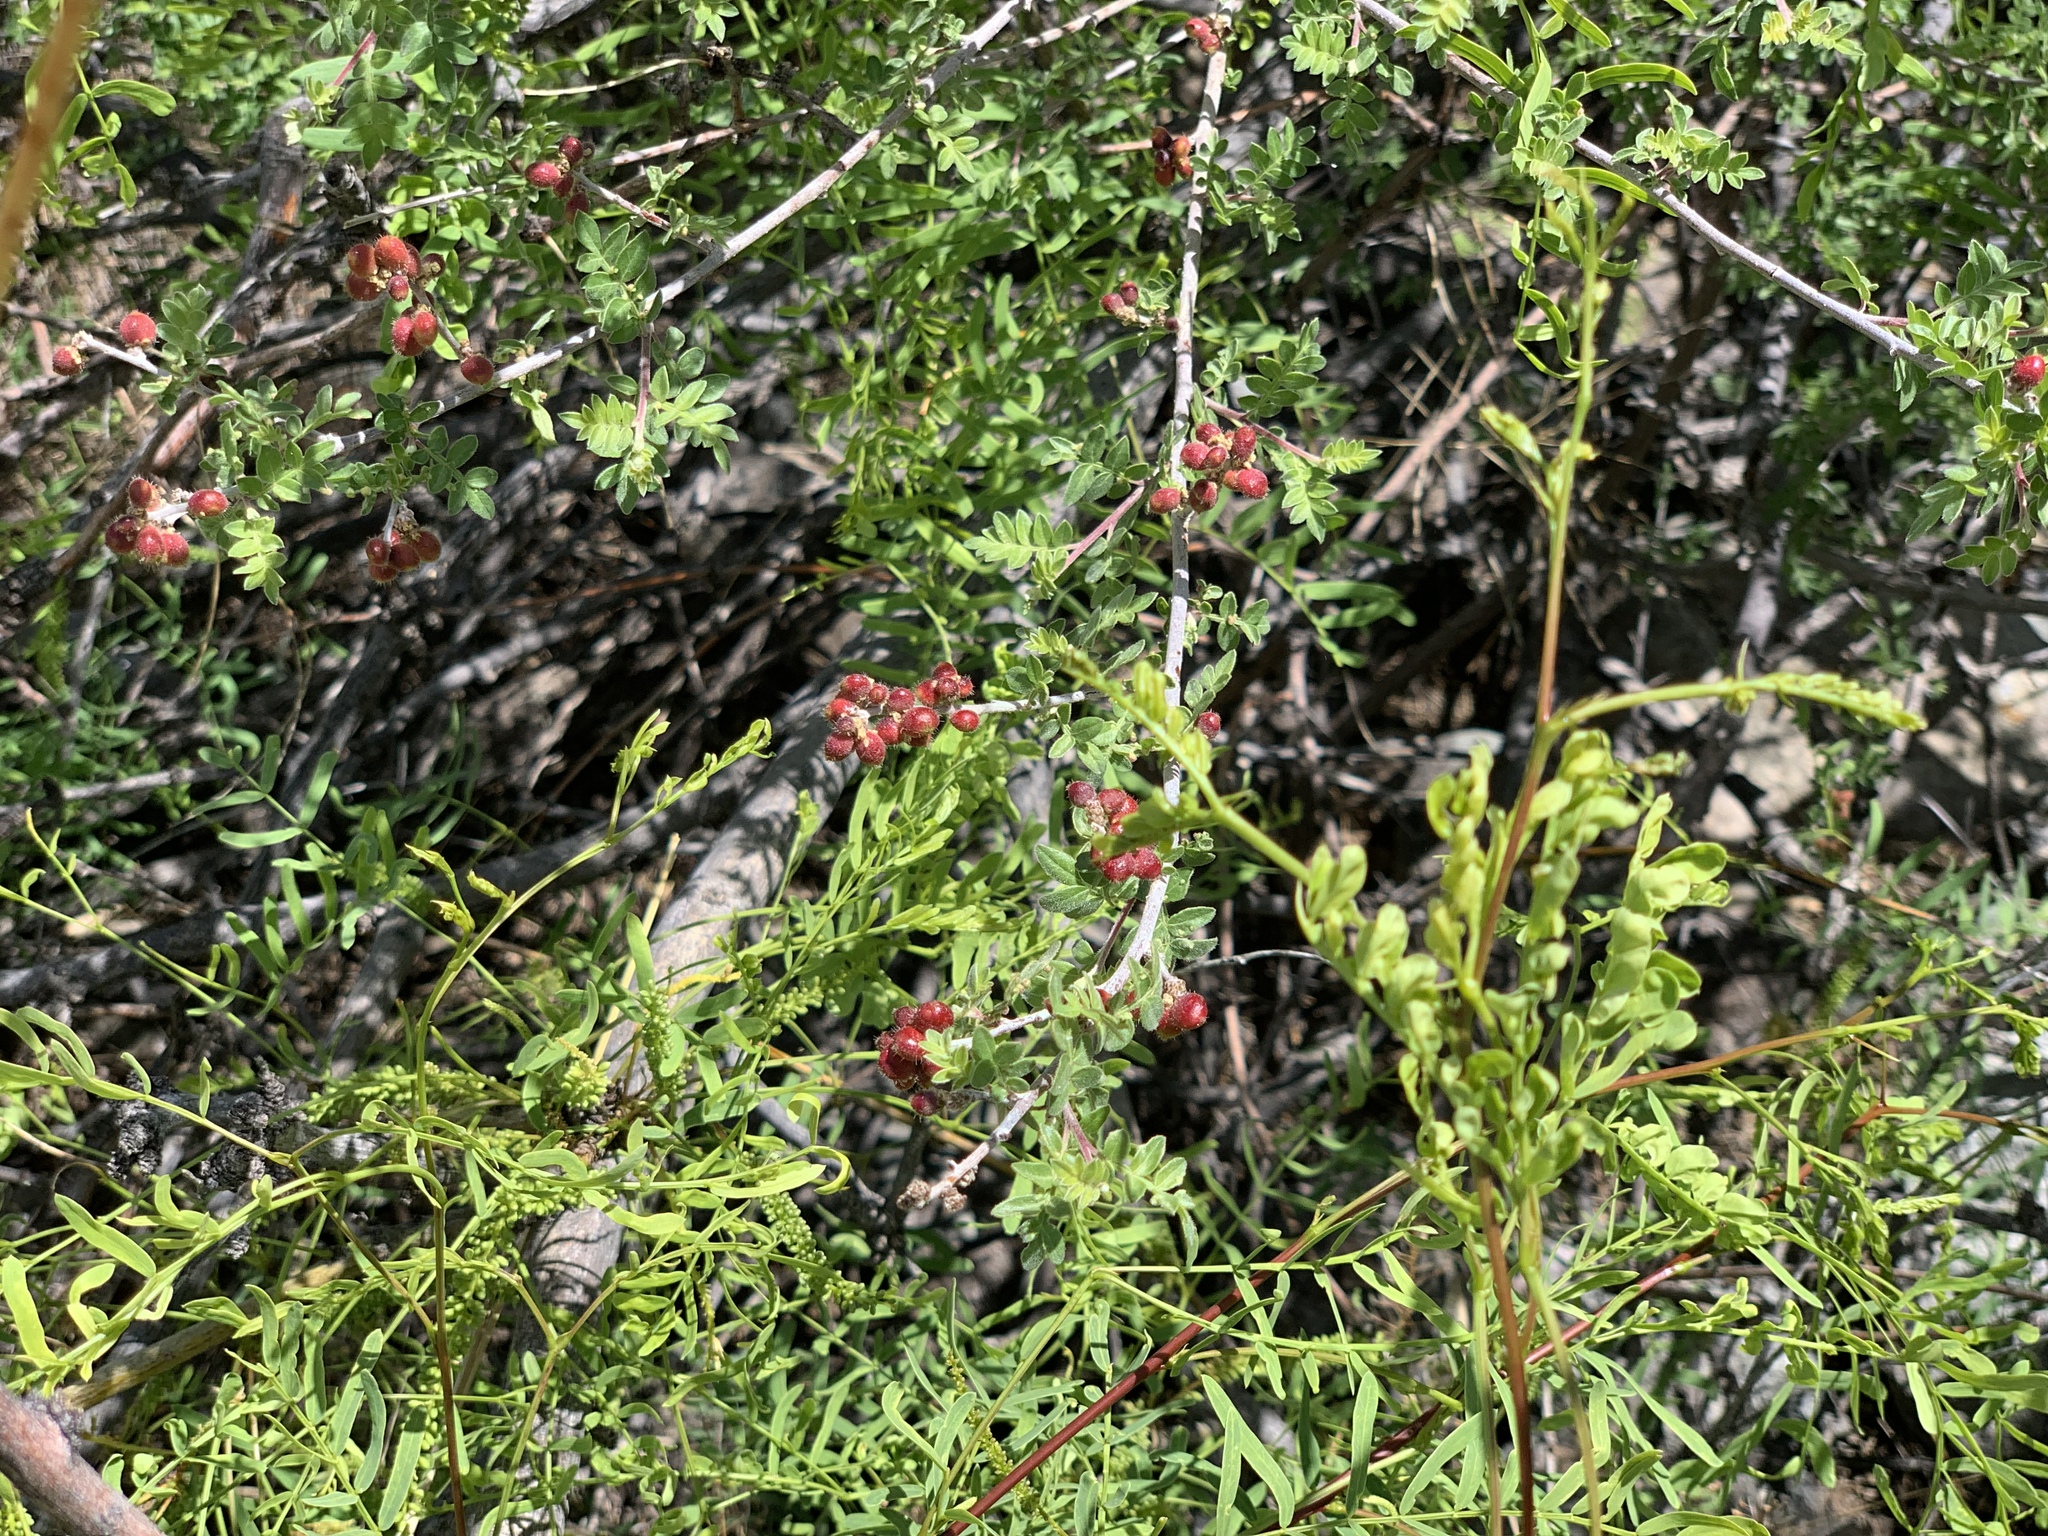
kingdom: Plantae
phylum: Tracheophyta
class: Magnoliopsida
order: Sapindales
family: Anacardiaceae
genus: Rhus
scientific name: Rhus microphylla
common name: Desert sumac
